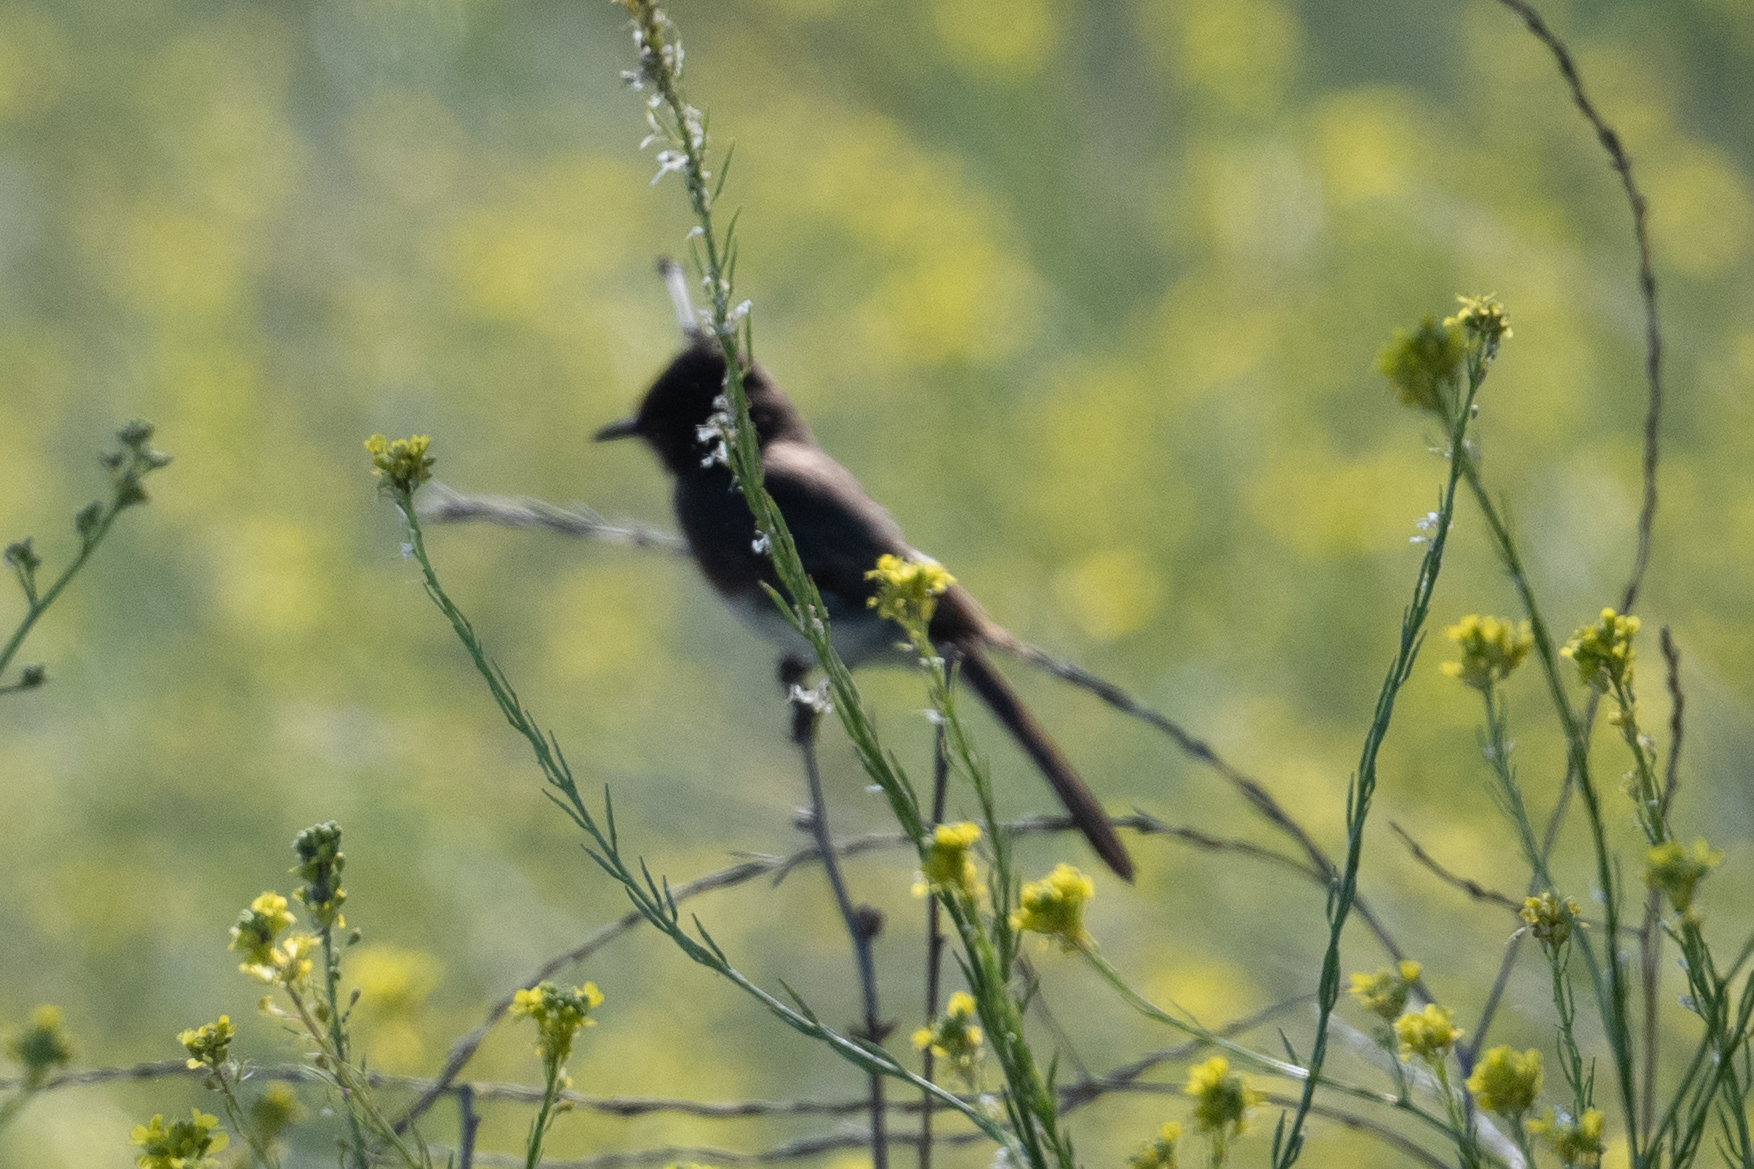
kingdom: Animalia
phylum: Chordata
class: Aves
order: Passeriformes
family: Tyrannidae
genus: Sayornis
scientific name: Sayornis nigricans
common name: Black phoebe
